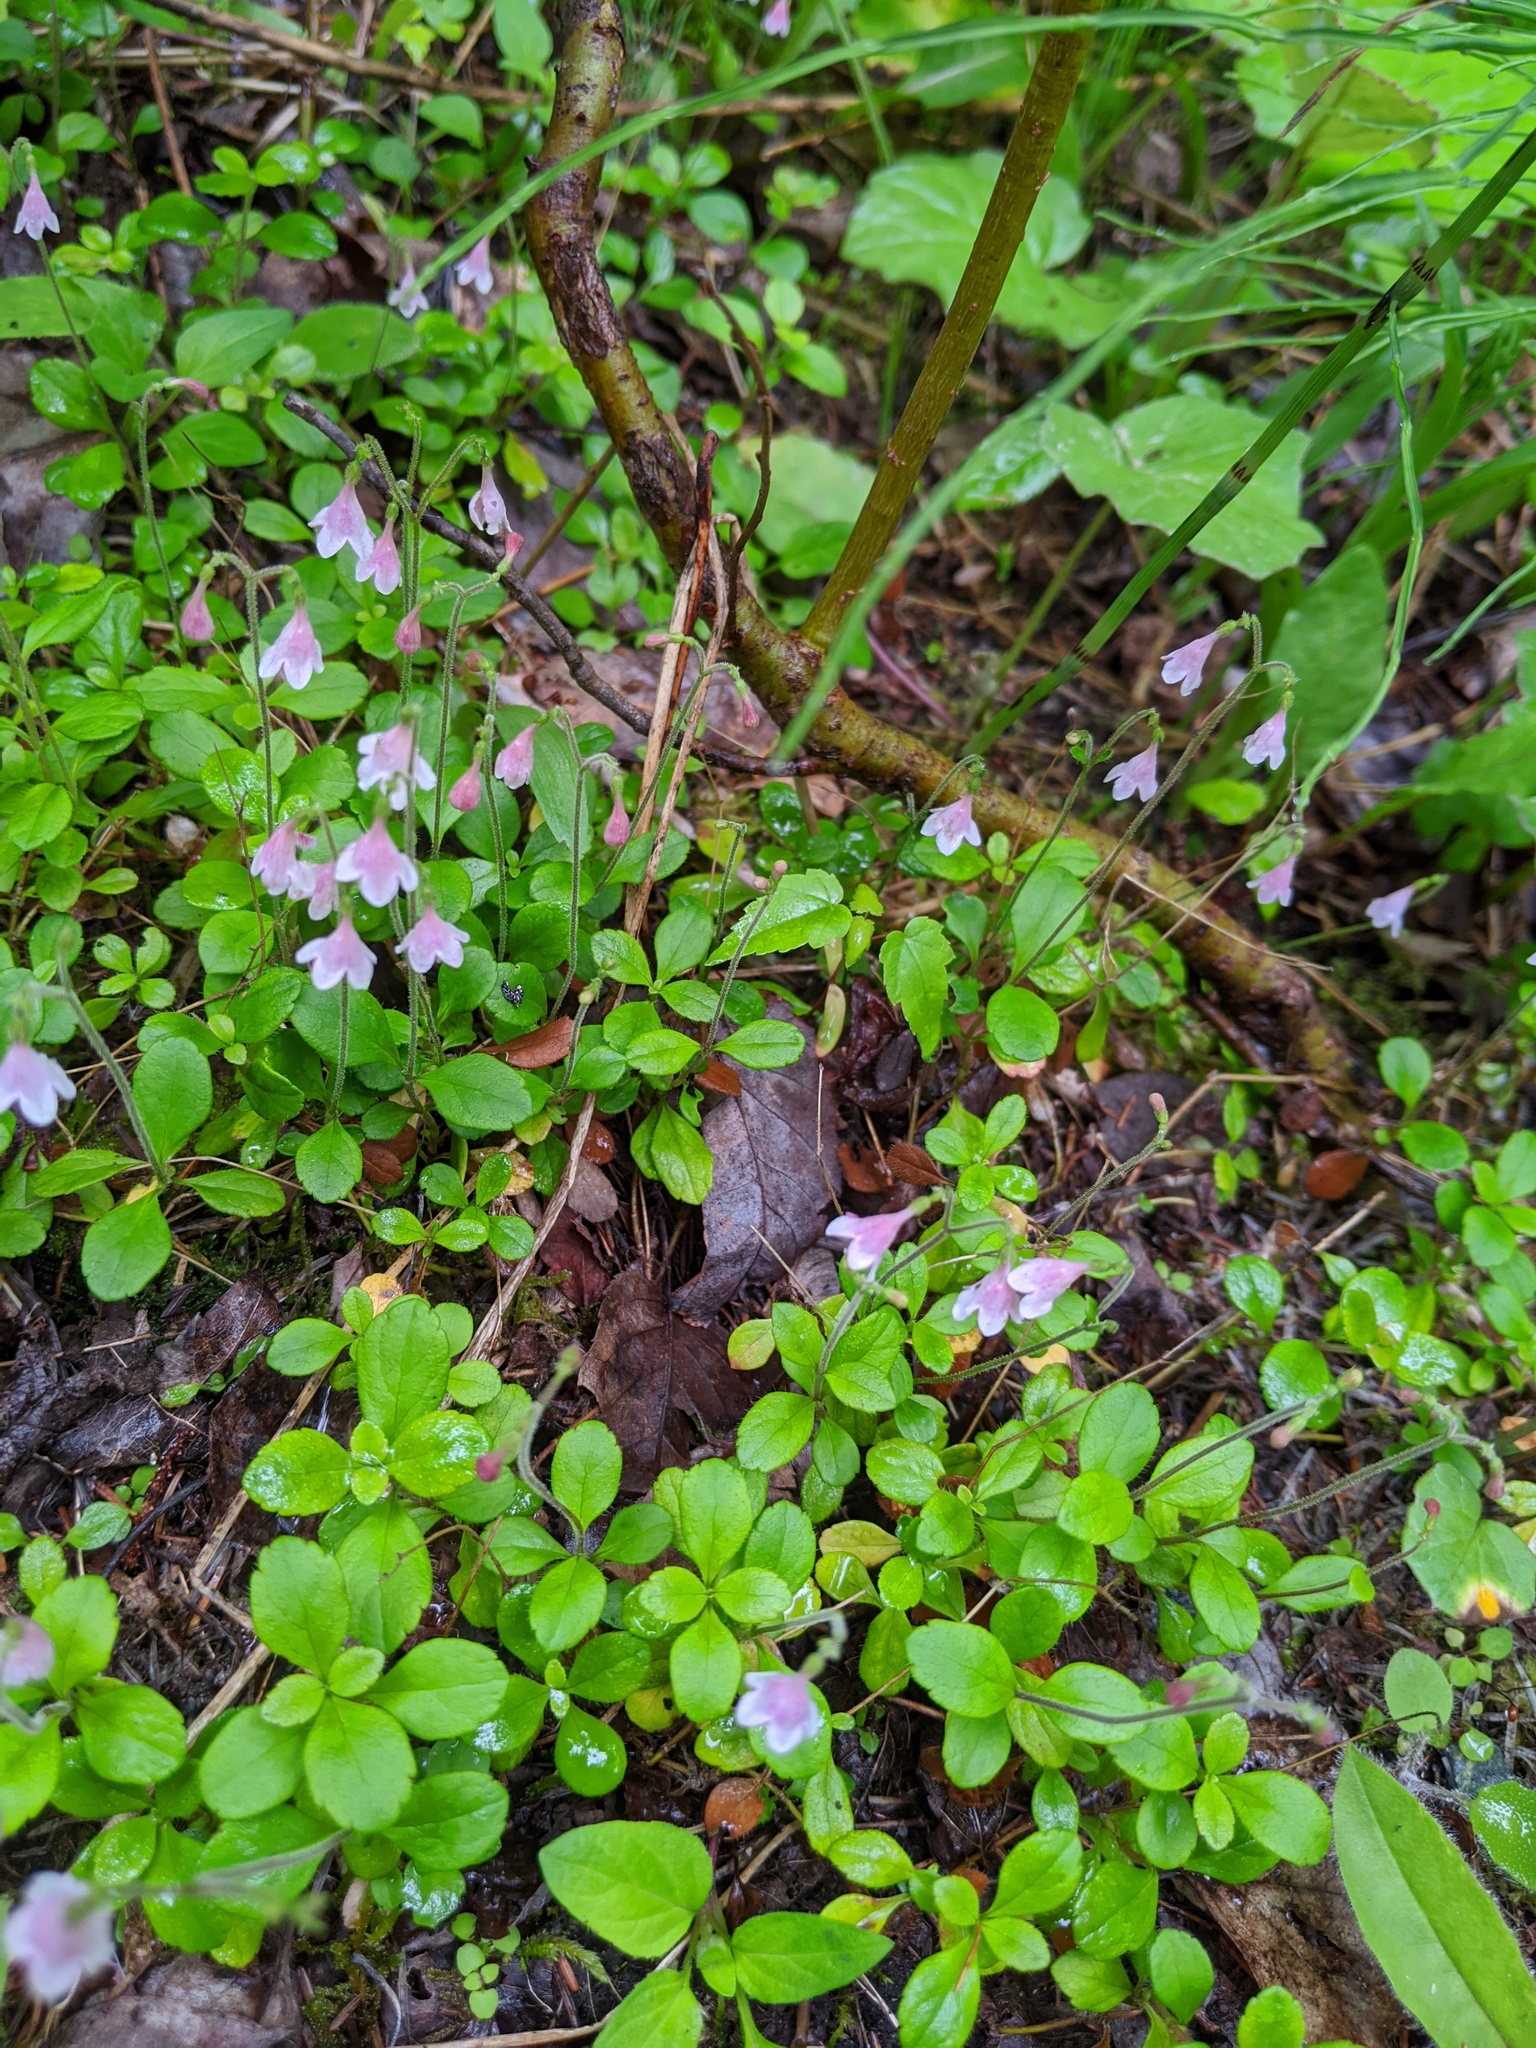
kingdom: Plantae
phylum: Tracheophyta
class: Magnoliopsida
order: Dipsacales
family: Caprifoliaceae
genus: Linnaea
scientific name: Linnaea borealis
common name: Twinflower
